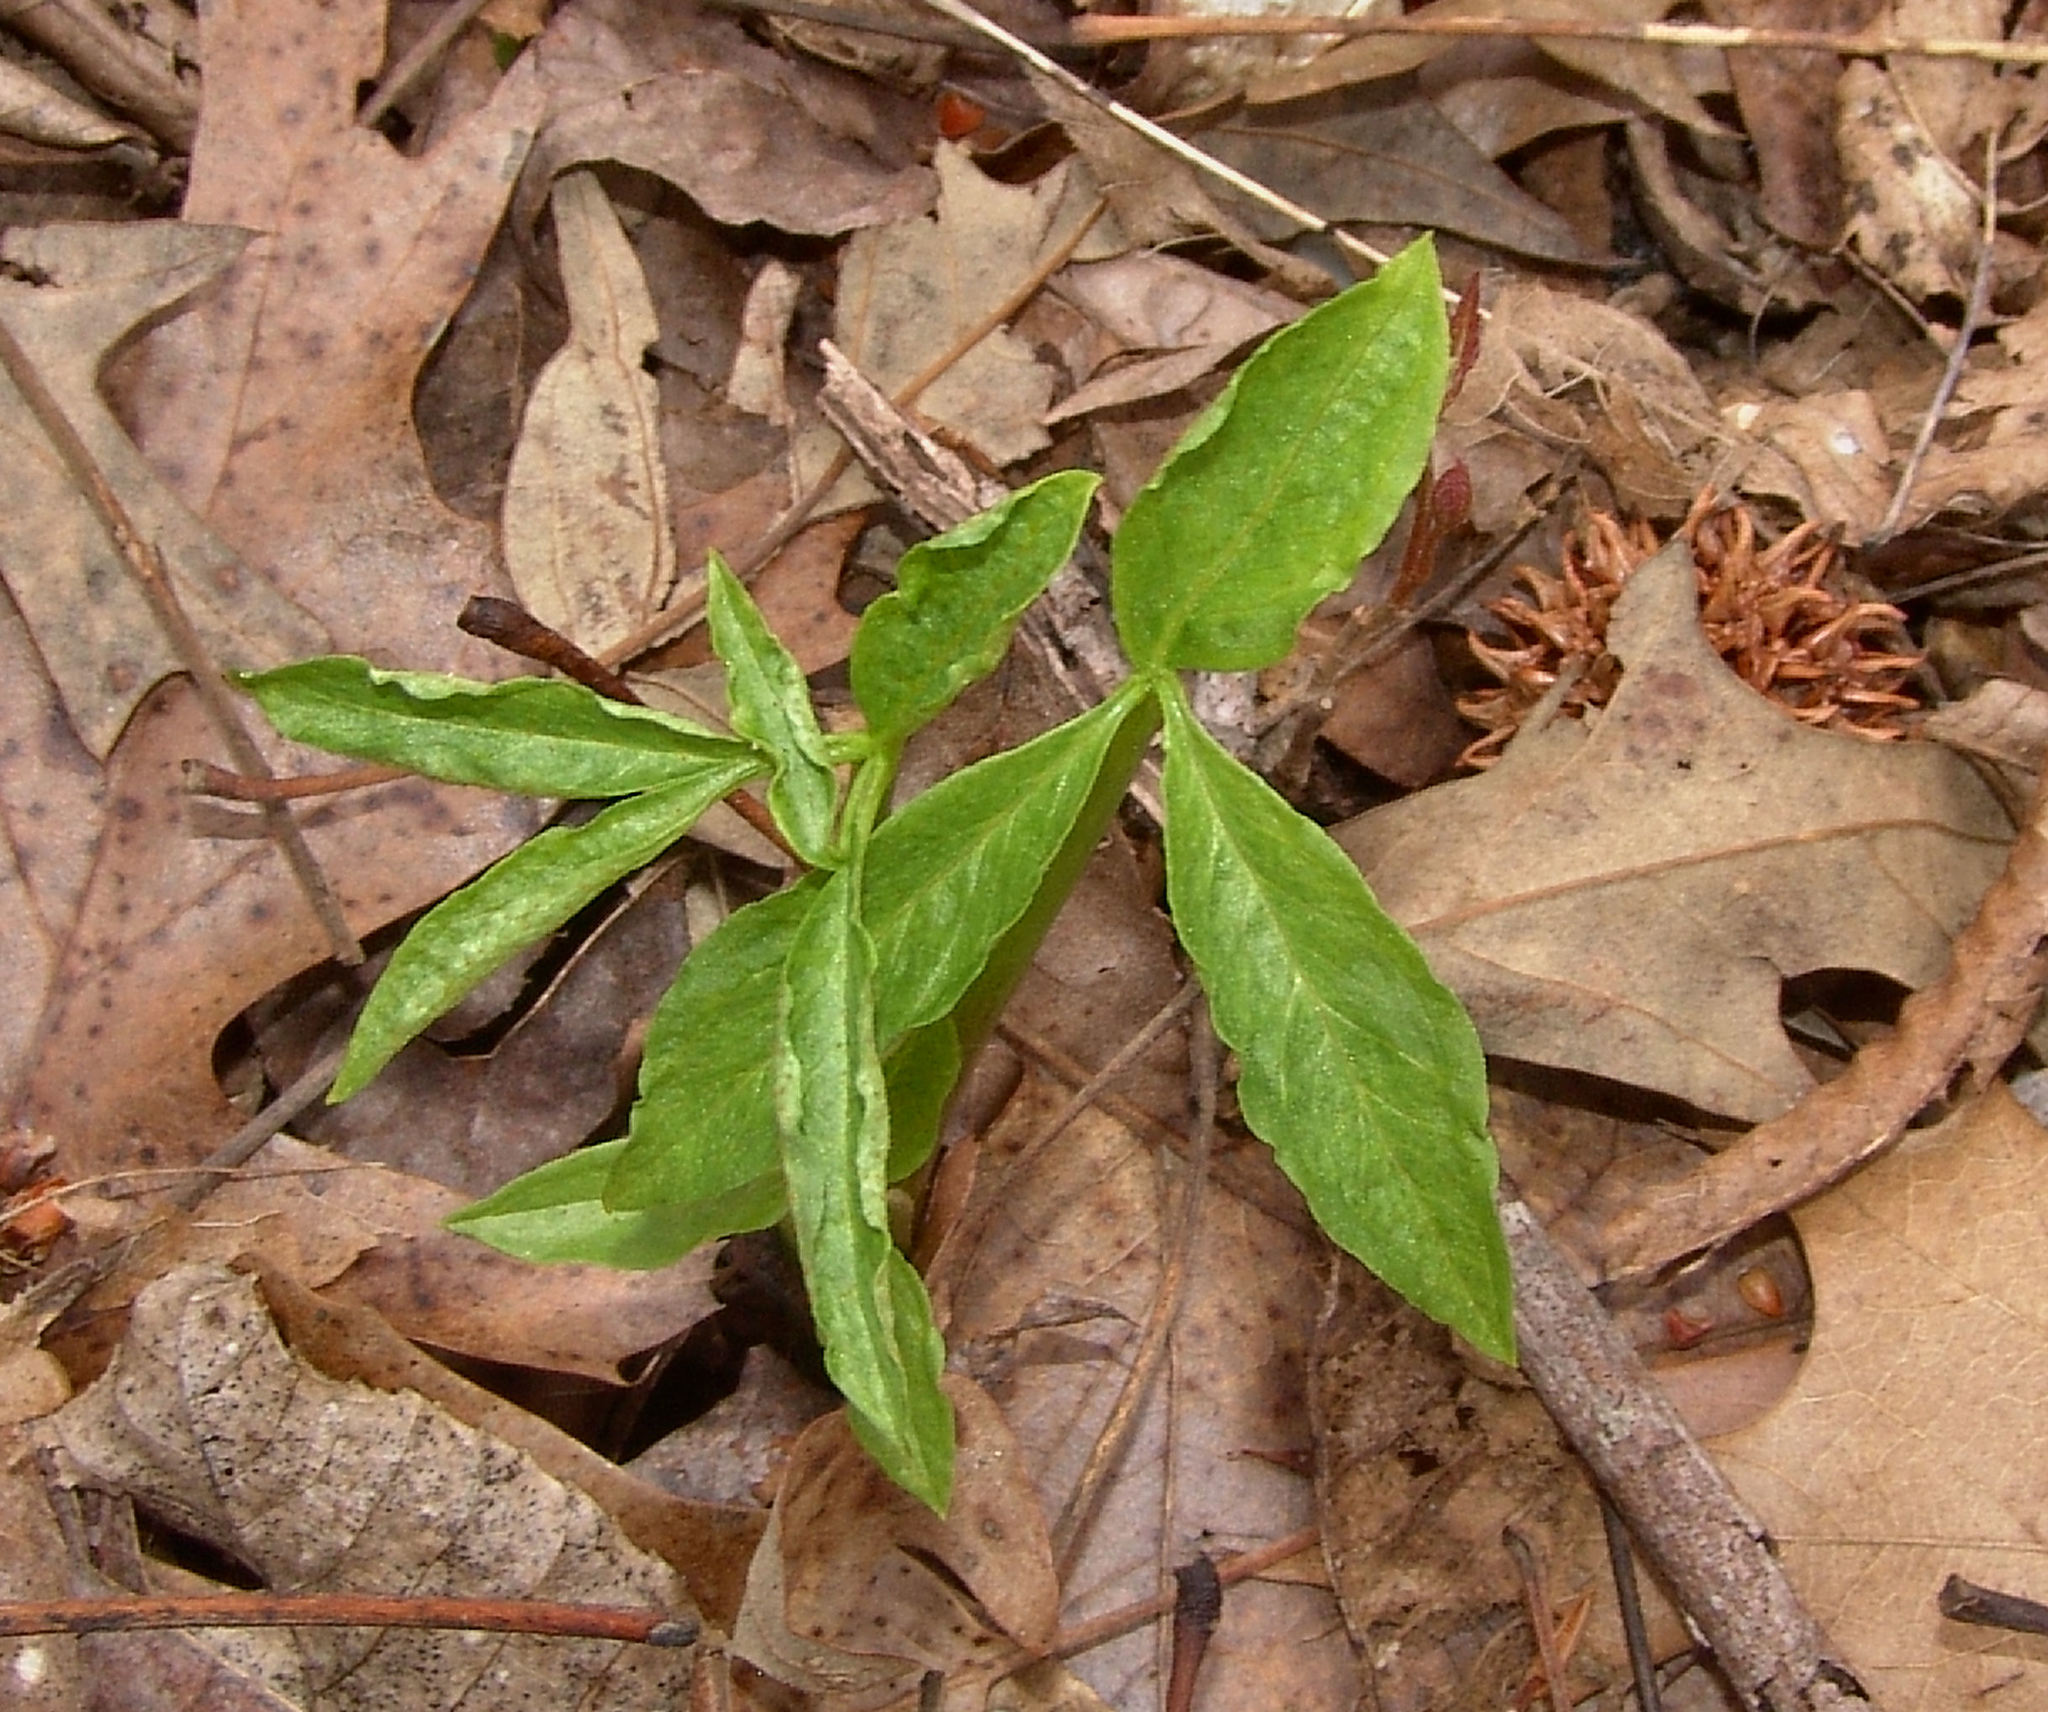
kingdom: Plantae
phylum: Tracheophyta
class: Liliopsida
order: Alismatales
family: Araceae
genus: Arisaema
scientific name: Arisaema dracontium
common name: Dragon-arum
